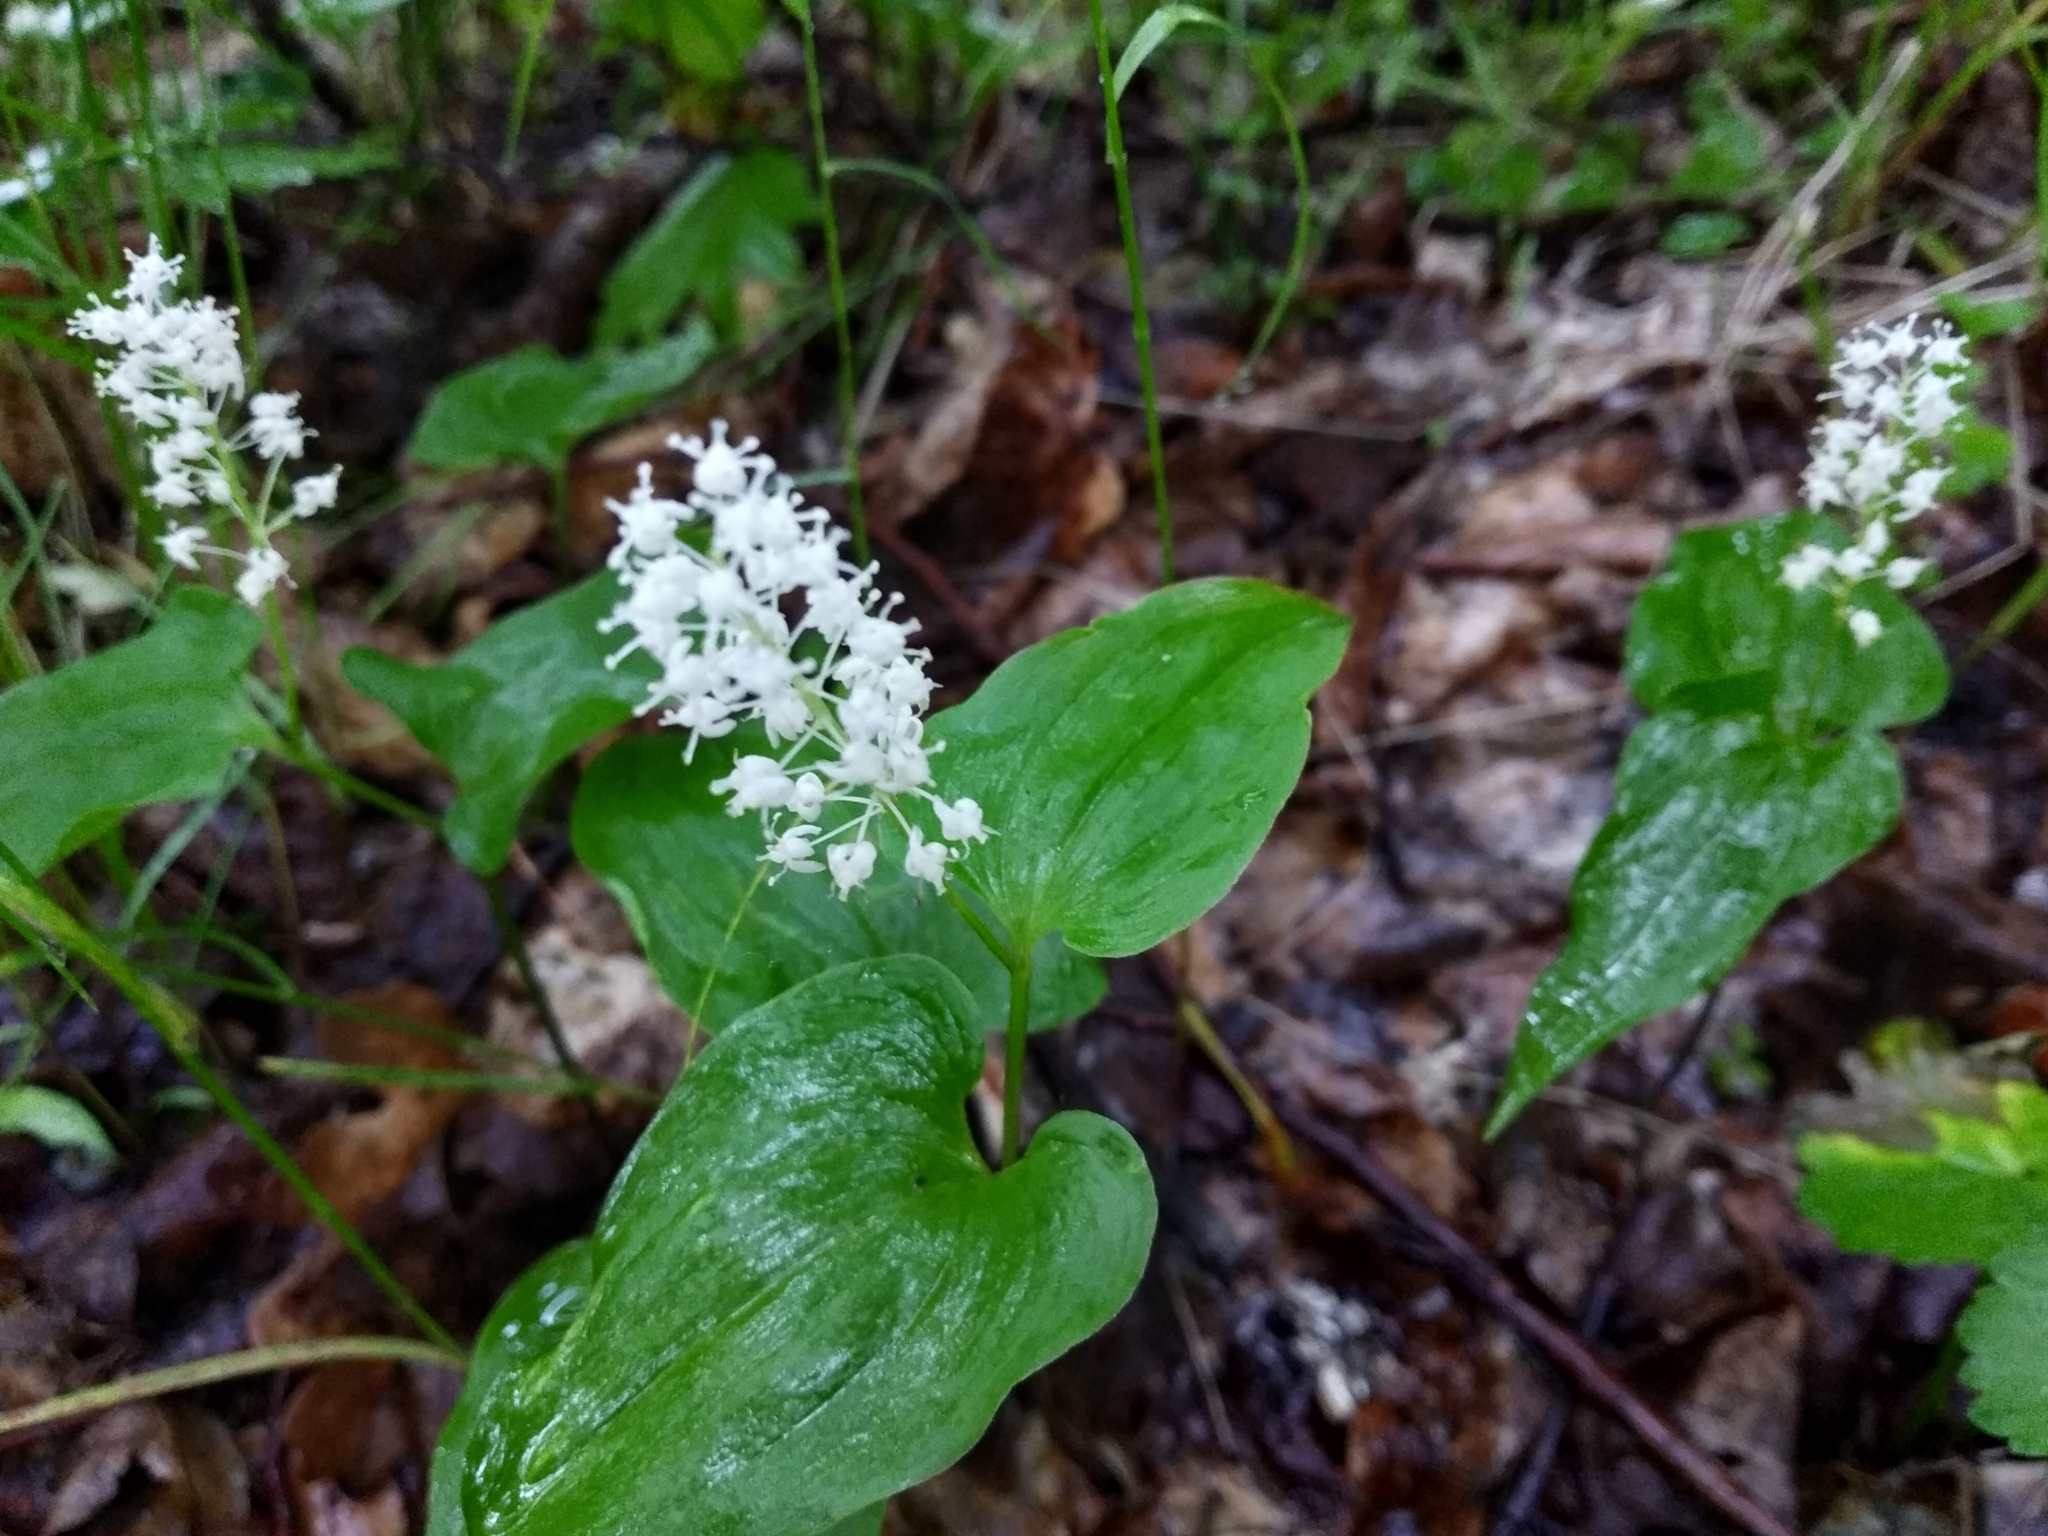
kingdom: Plantae
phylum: Tracheophyta
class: Liliopsida
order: Asparagales
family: Asparagaceae
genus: Maianthemum
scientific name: Maianthemum bifolium
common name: May lily
